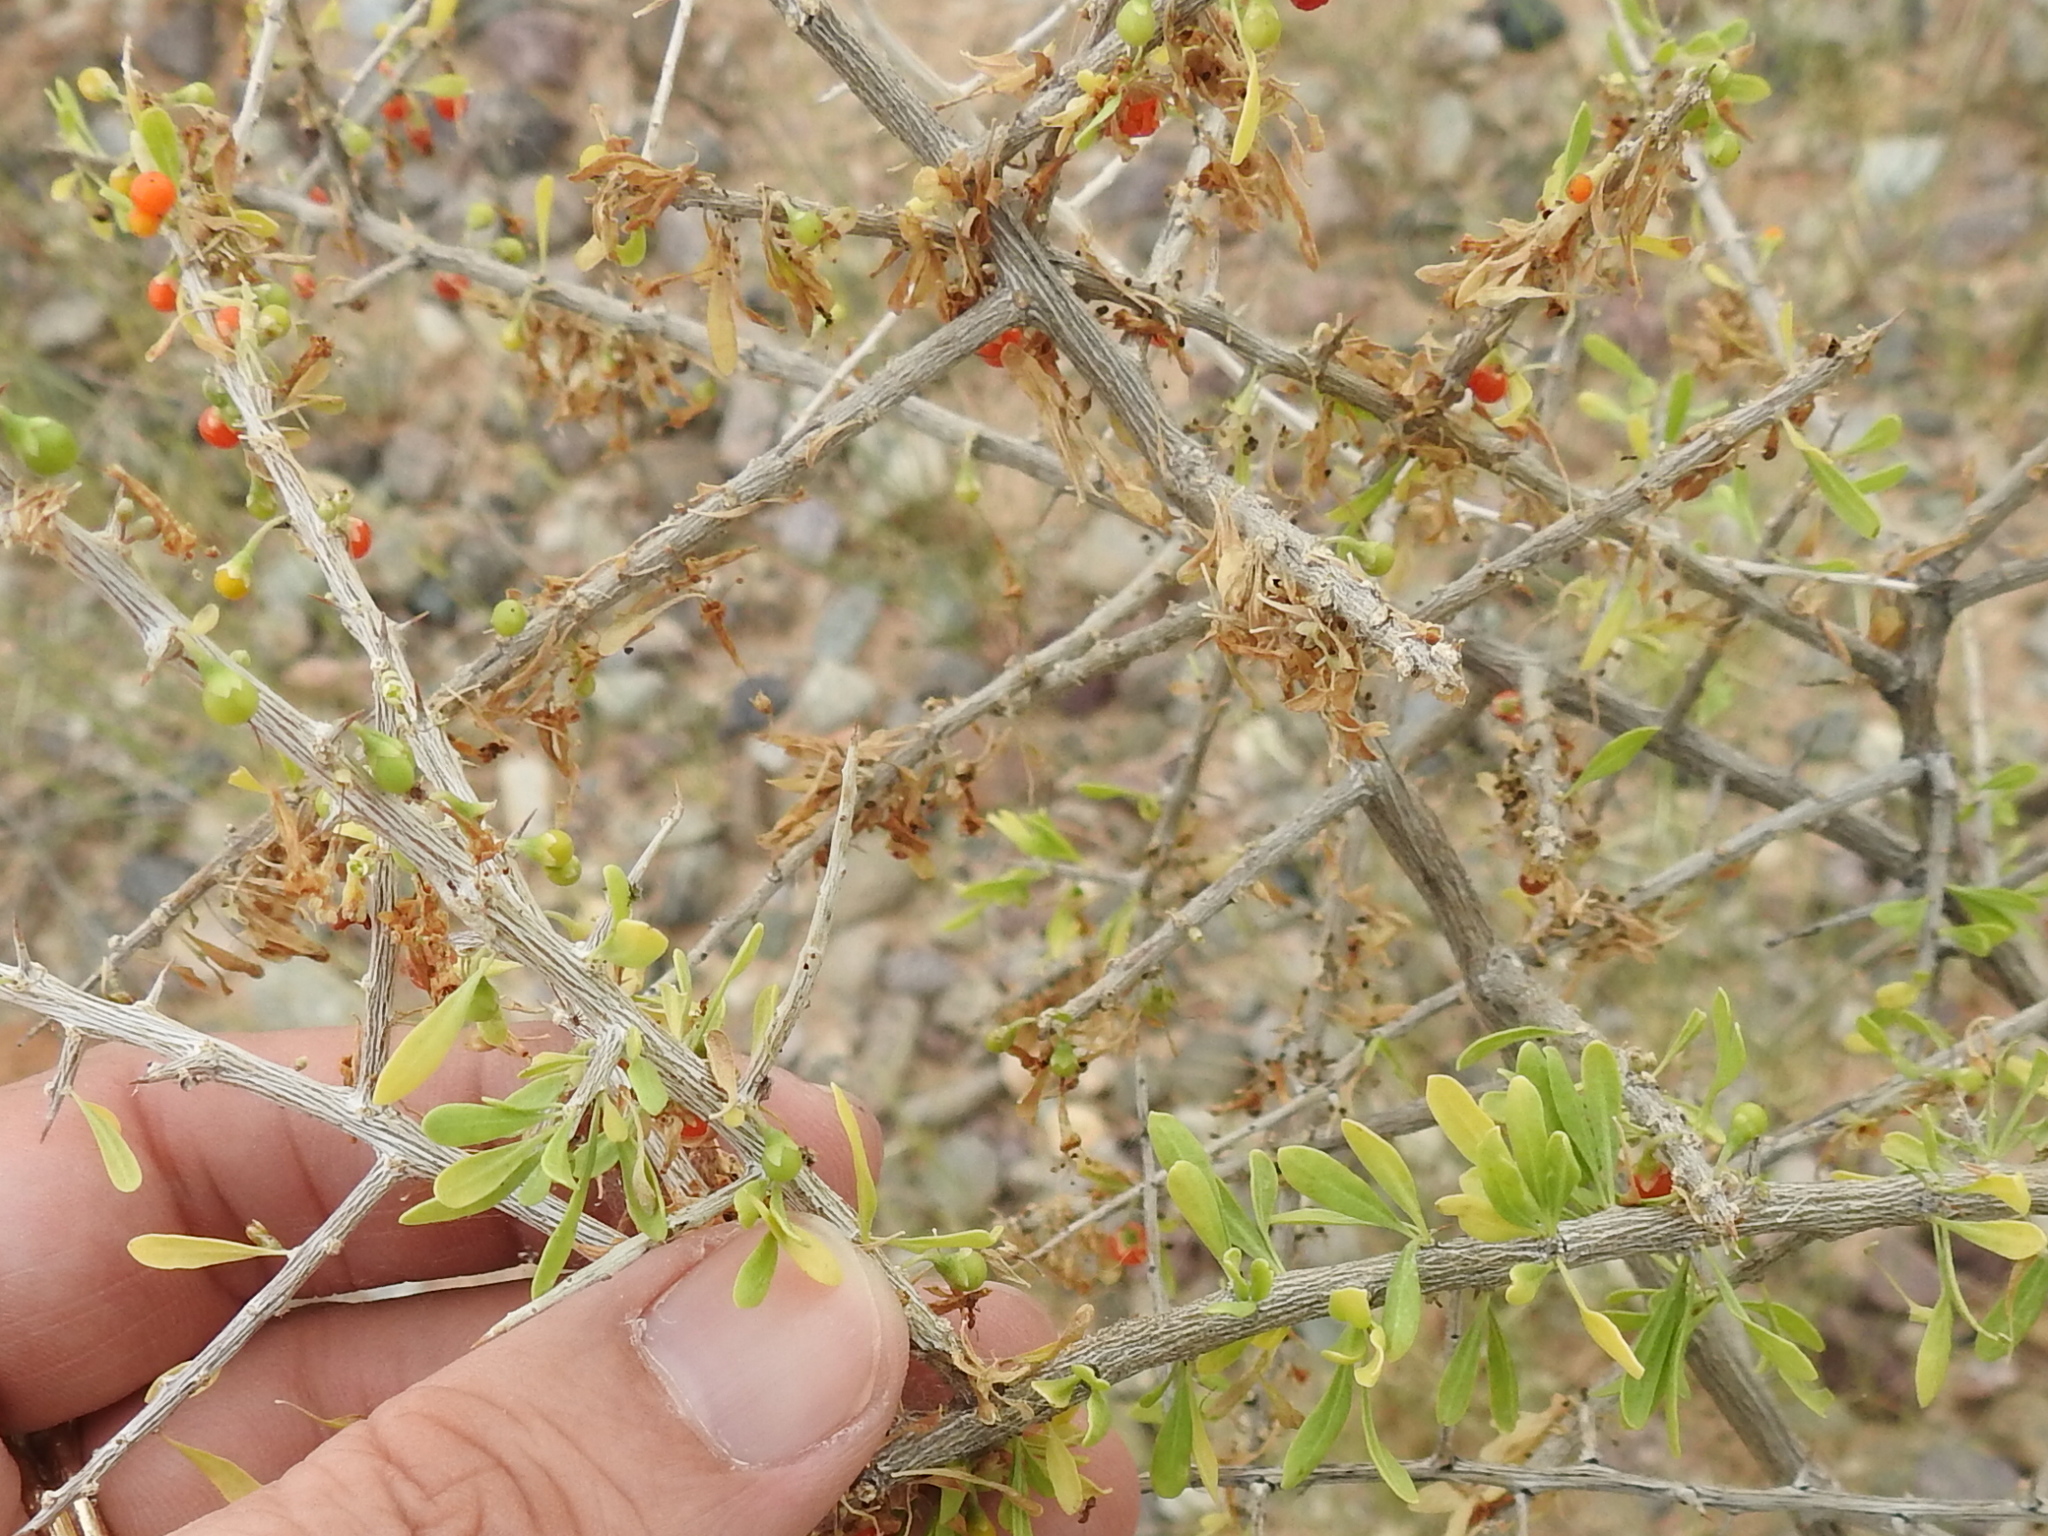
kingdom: Plantae
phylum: Tracheophyta
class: Magnoliopsida
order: Solanales
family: Solanaceae
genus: Lycium
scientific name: Lycium andersonii
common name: Water-jacket
